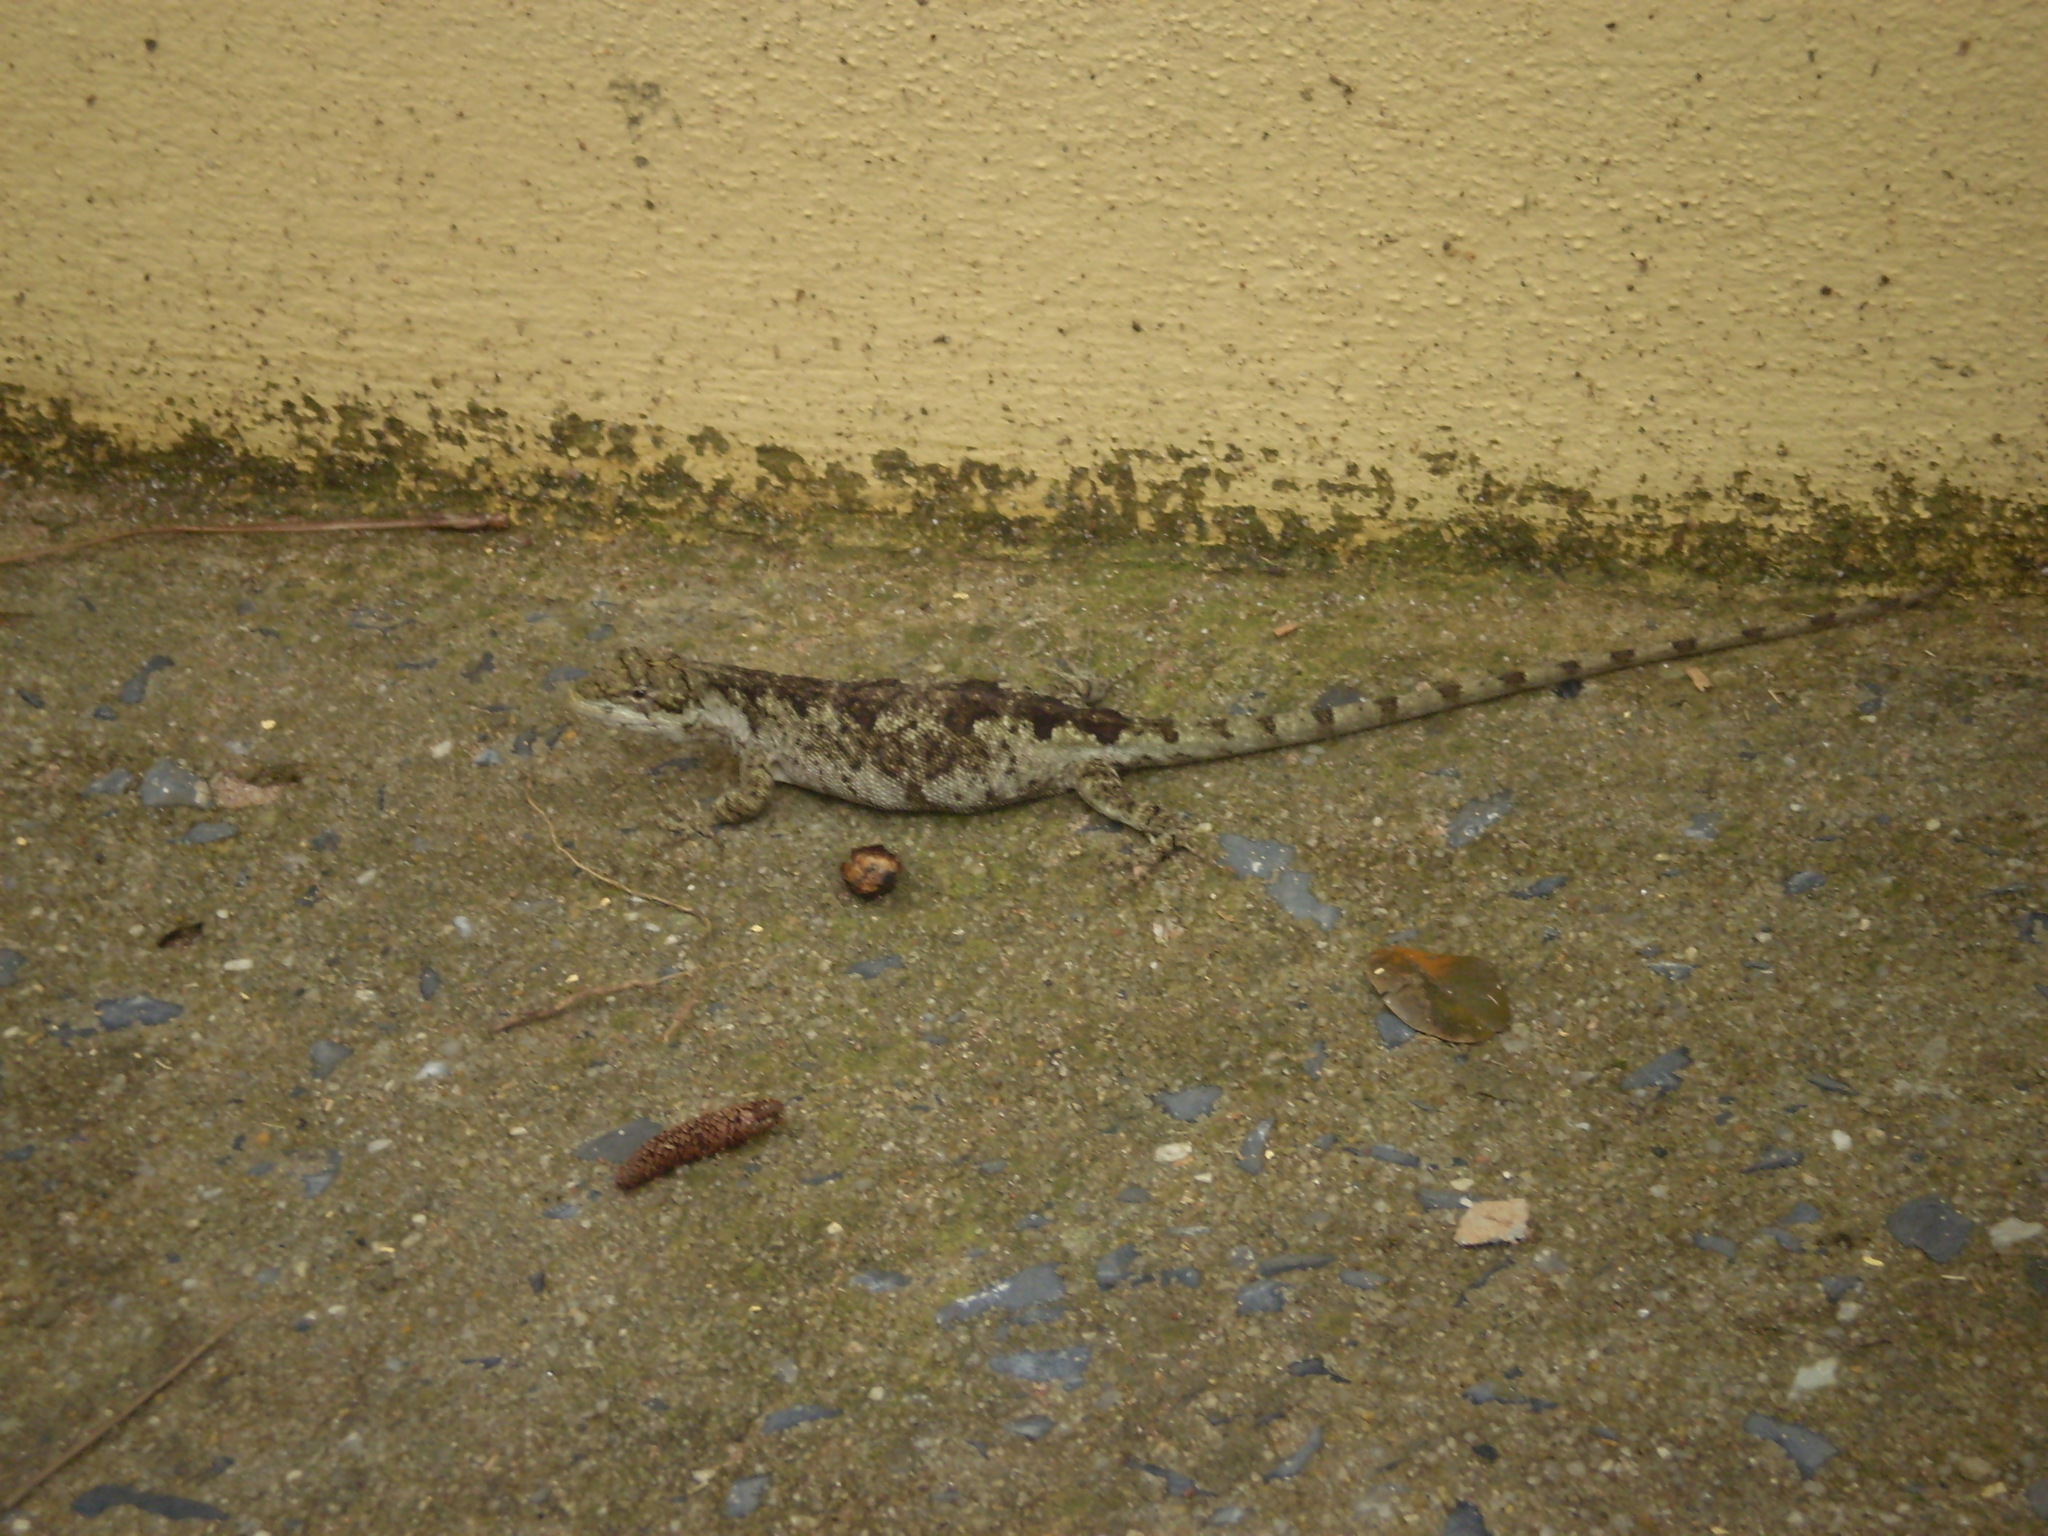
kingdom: Animalia
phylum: Chordata
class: Squamata
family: Leiosauridae
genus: Urostrophus
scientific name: Urostrophus vautieri
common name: Brazilian steppe iguana
